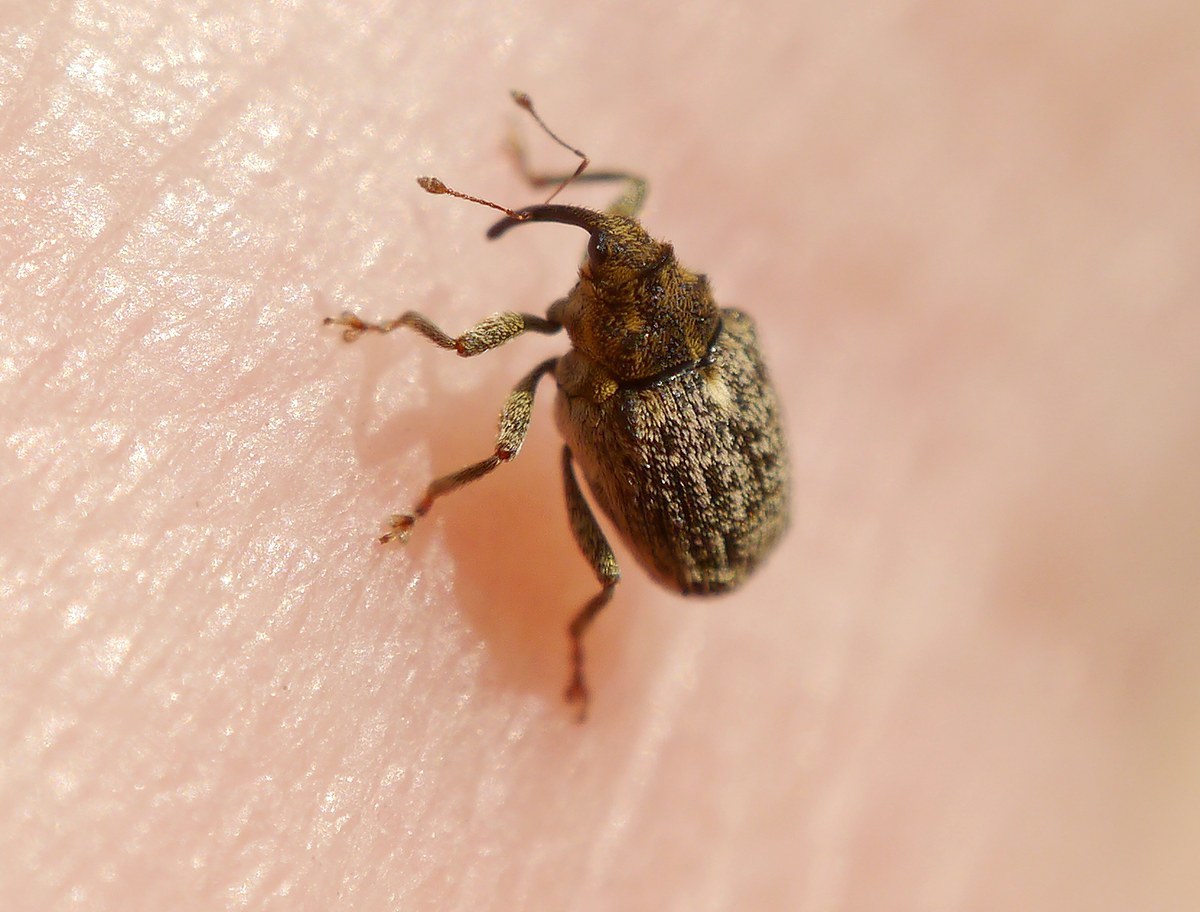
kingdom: Animalia
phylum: Arthropoda
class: Insecta
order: Coleoptera
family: Curculionidae
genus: Ceutorhynchus
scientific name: Ceutorhynchus pallidactylus
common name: Cabbage stem weavil
